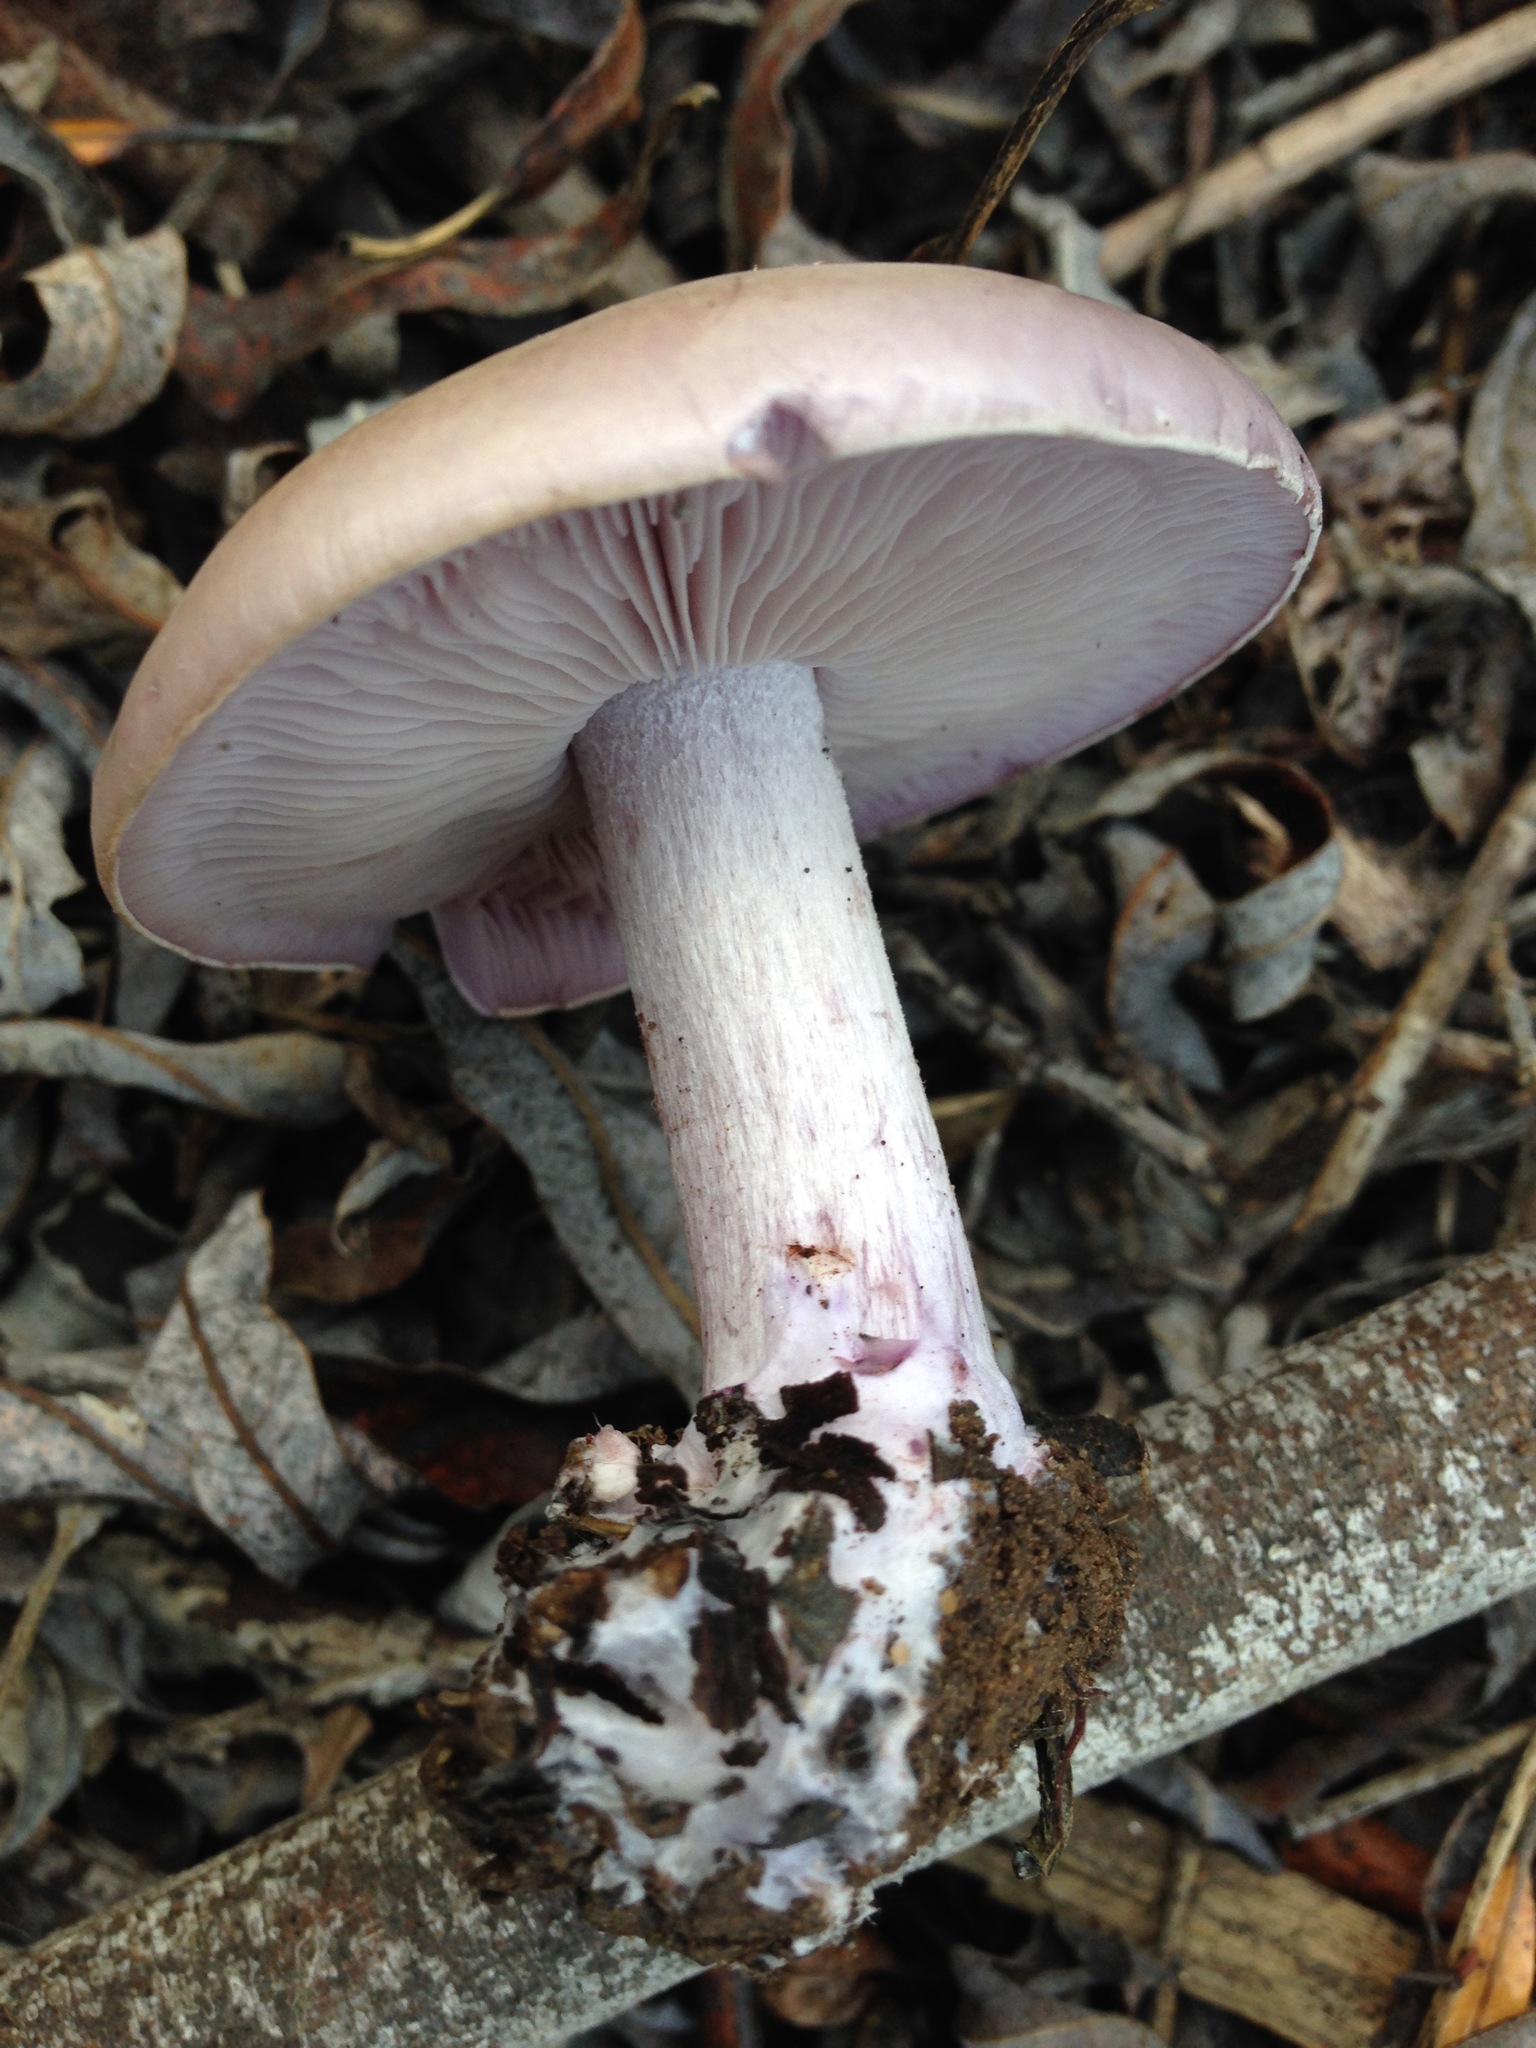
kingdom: Fungi
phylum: Basidiomycota
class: Agaricomycetes
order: Agaricales
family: Tricholomataceae
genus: Collybia
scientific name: Collybia
